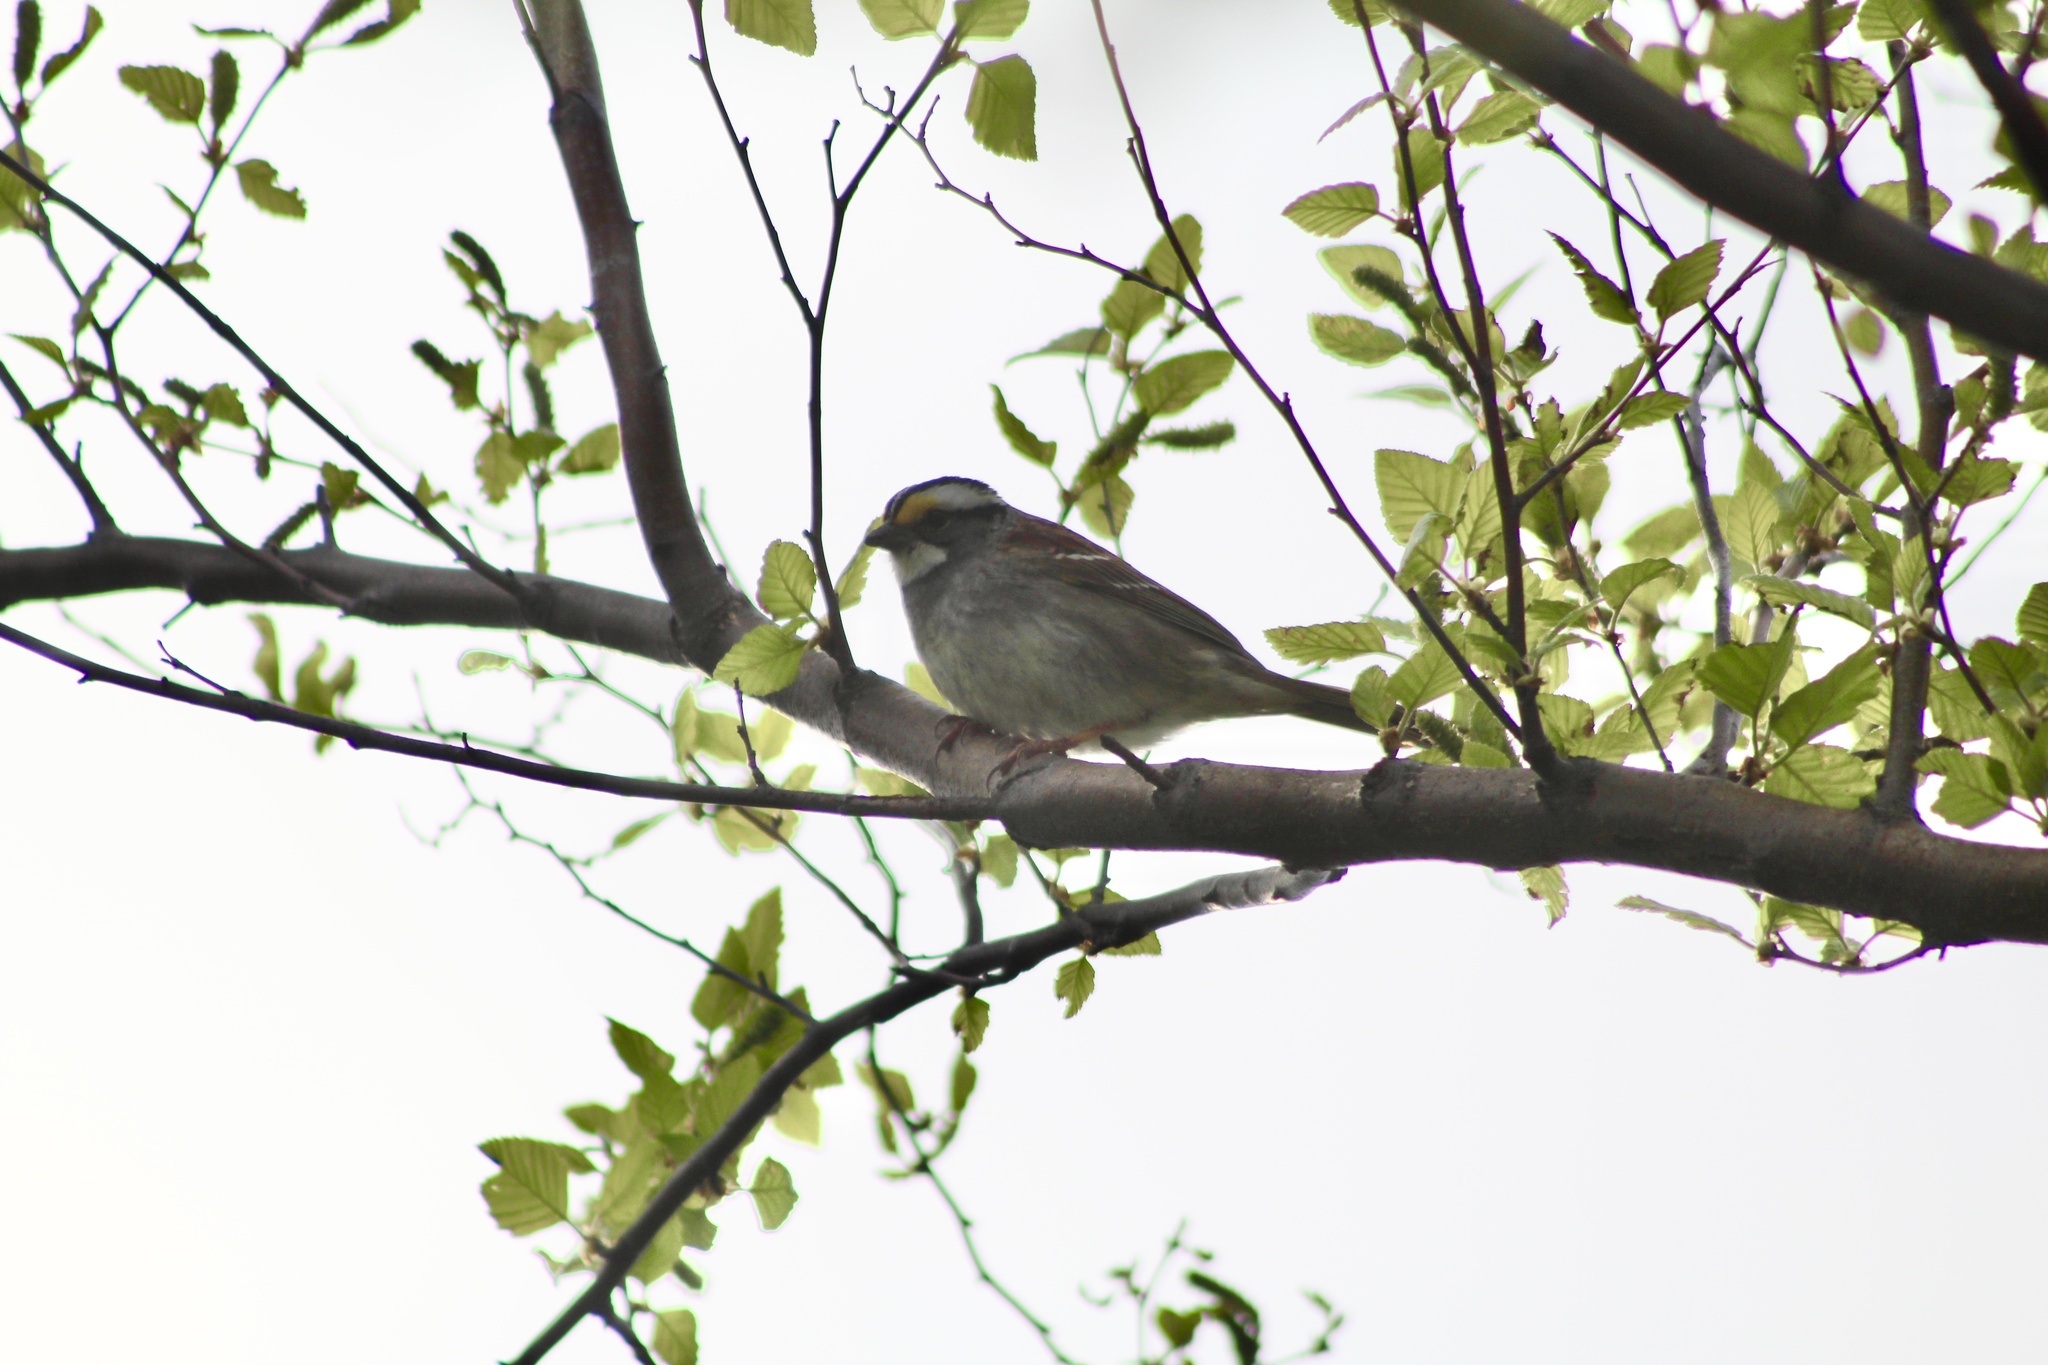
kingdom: Animalia
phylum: Chordata
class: Aves
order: Passeriformes
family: Passerellidae
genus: Zonotrichia
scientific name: Zonotrichia albicollis
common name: White-throated sparrow
